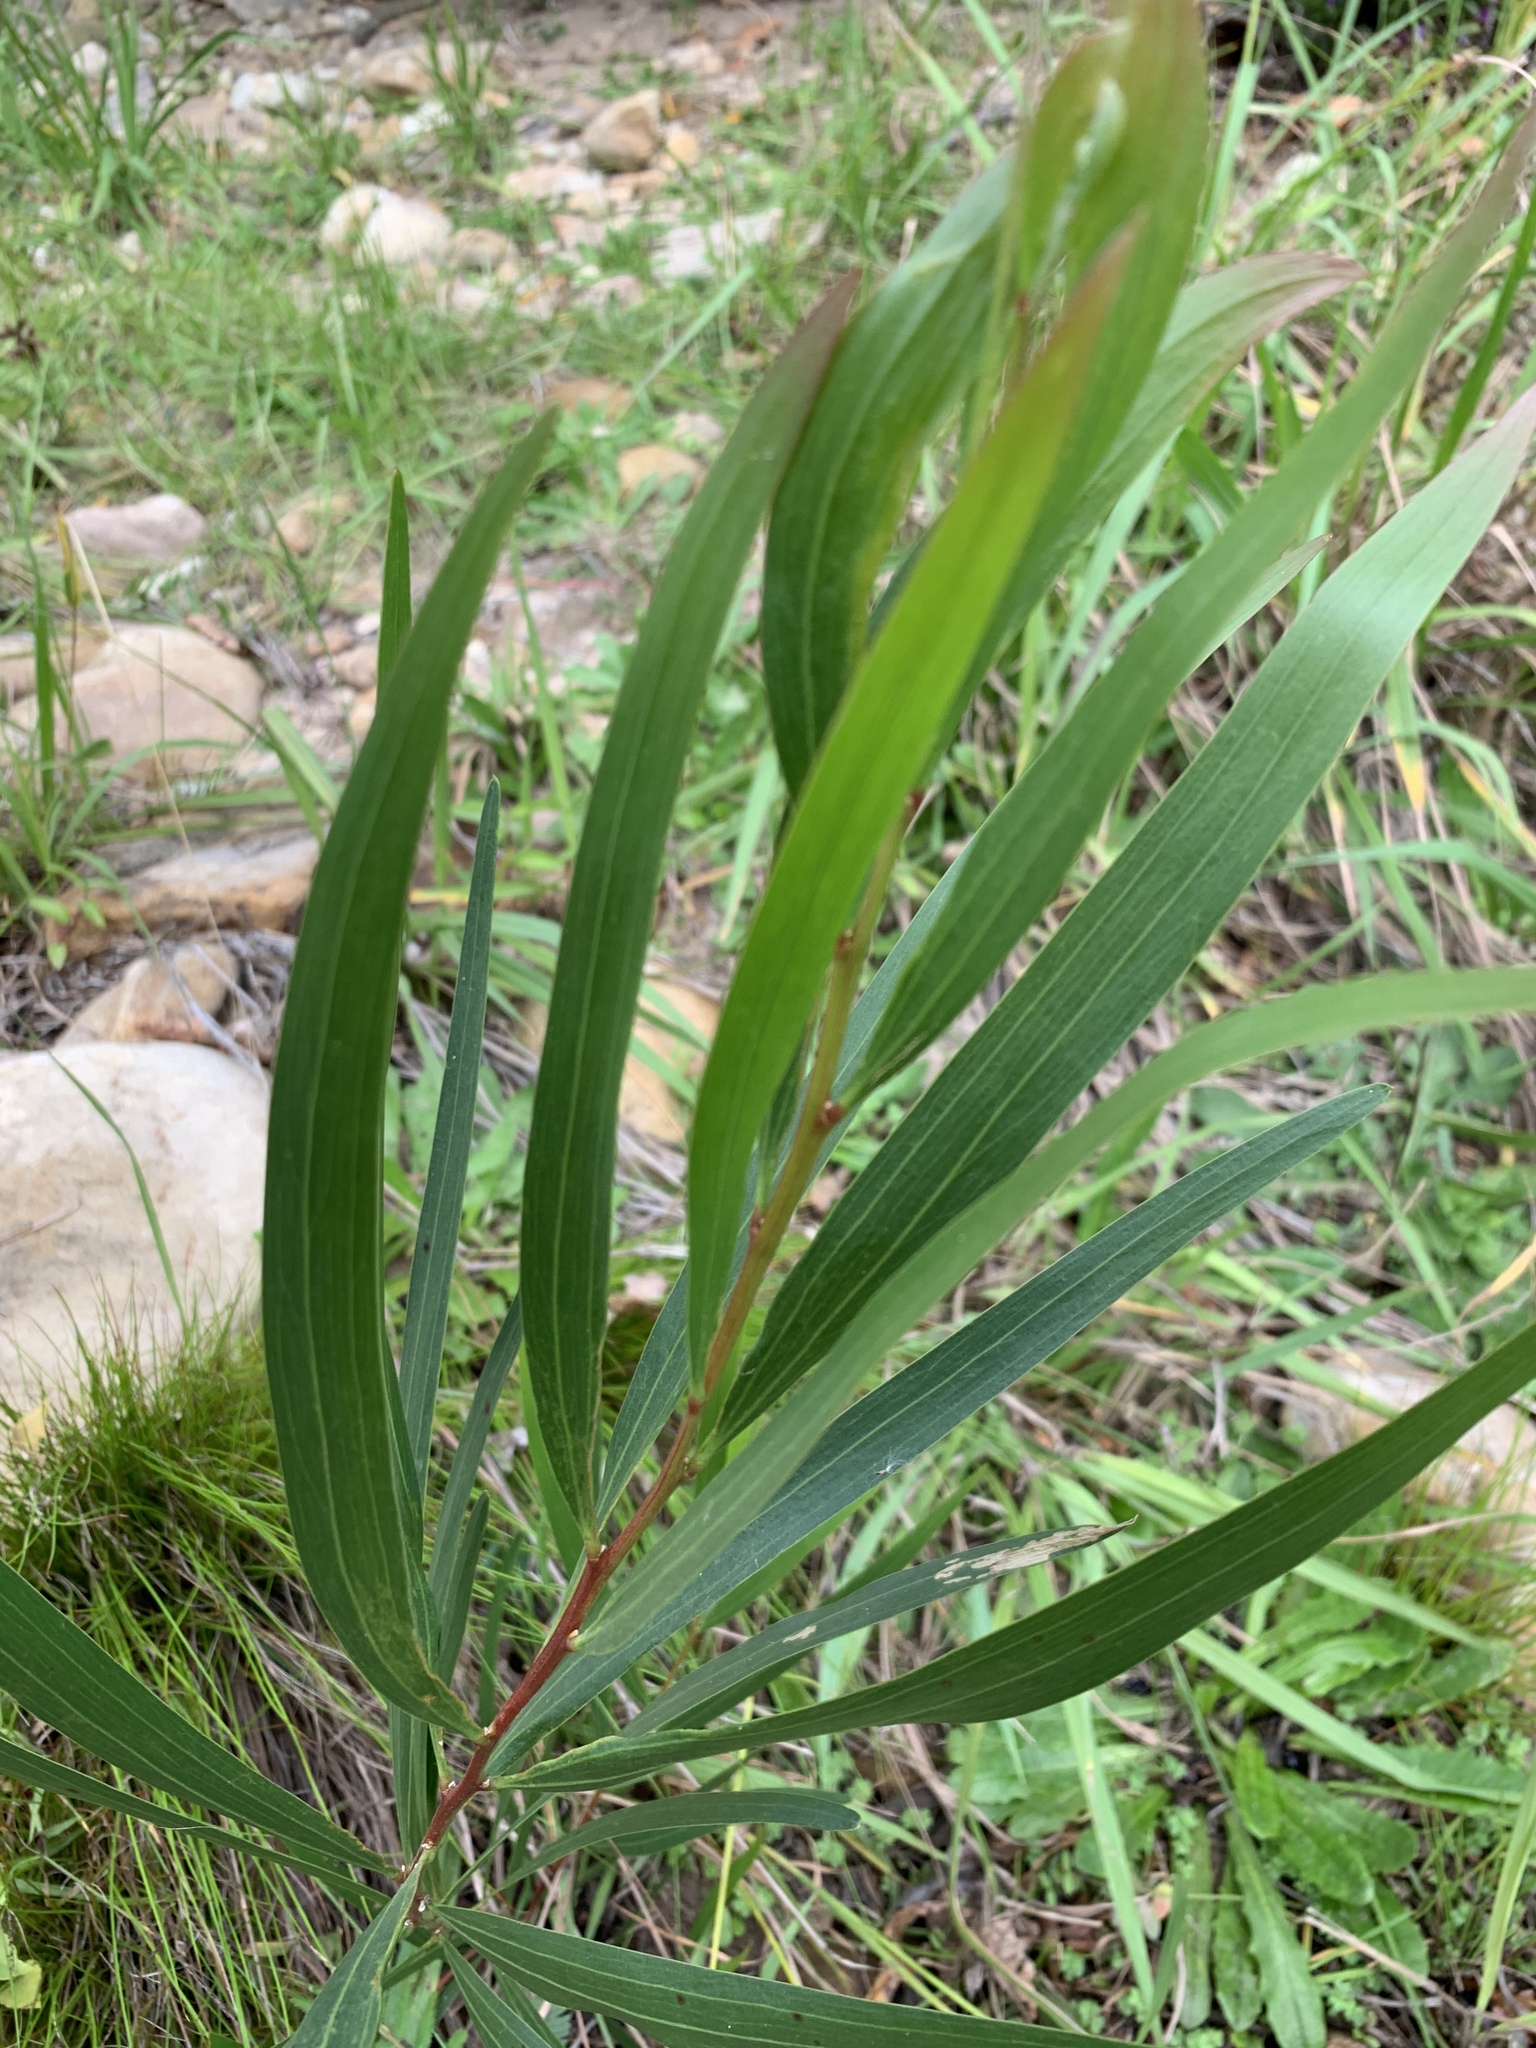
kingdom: Plantae
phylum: Tracheophyta
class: Magnoliopsida
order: Fabales
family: Fabaceae
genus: Acacia
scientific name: Acacia longifolia
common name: Sydney golden wattle
